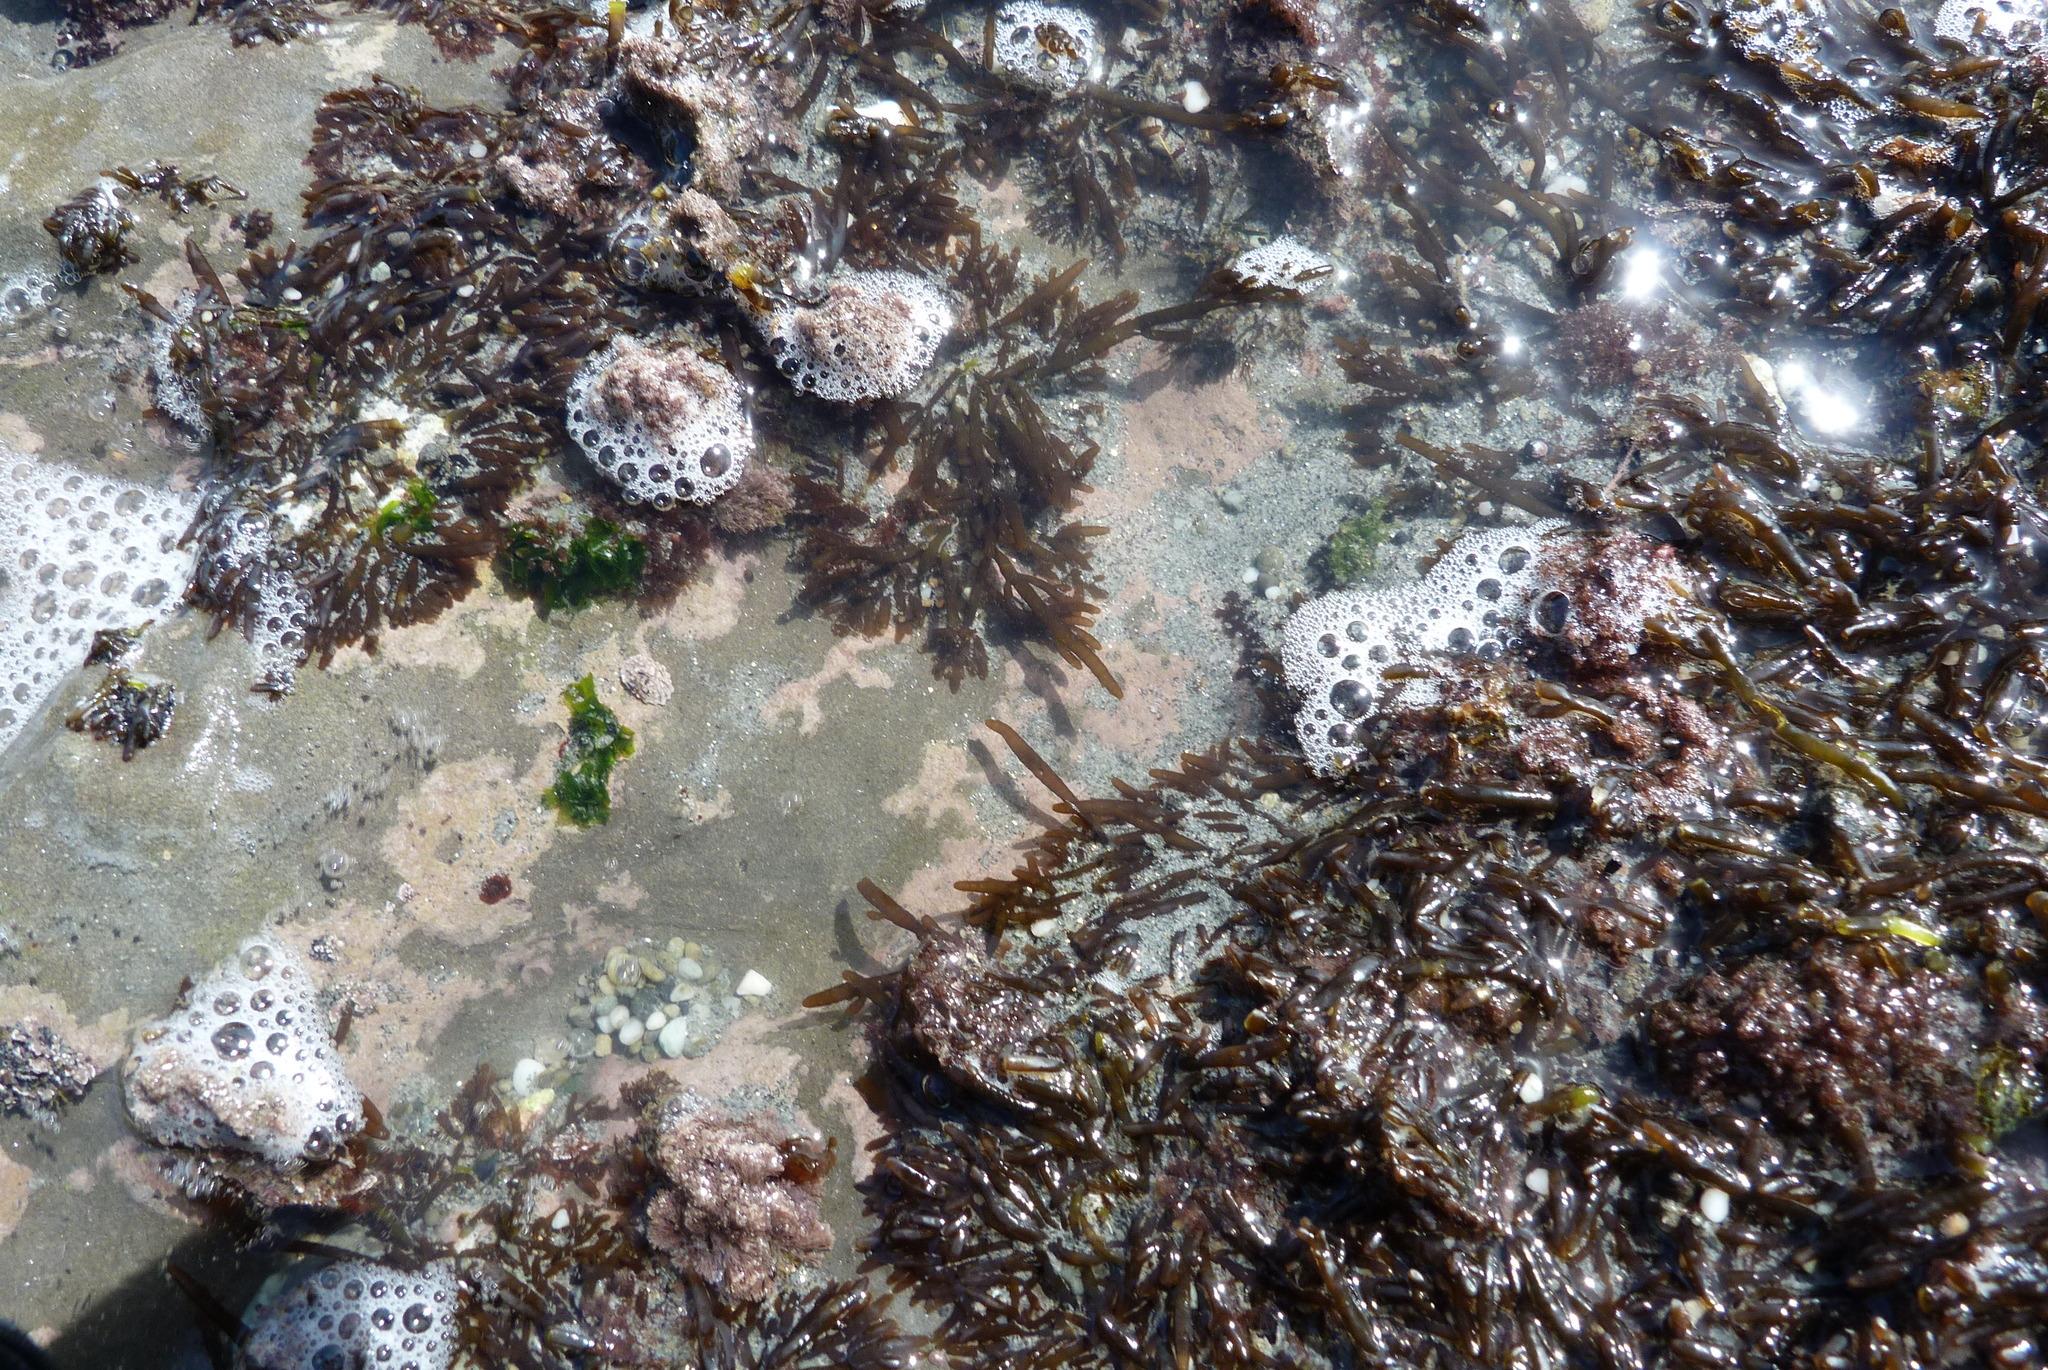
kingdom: Plantae
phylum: Rhodophyta
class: Florideophyceae
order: Rhodymeniales
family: Champiaceae
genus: Champia
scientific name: Champia
